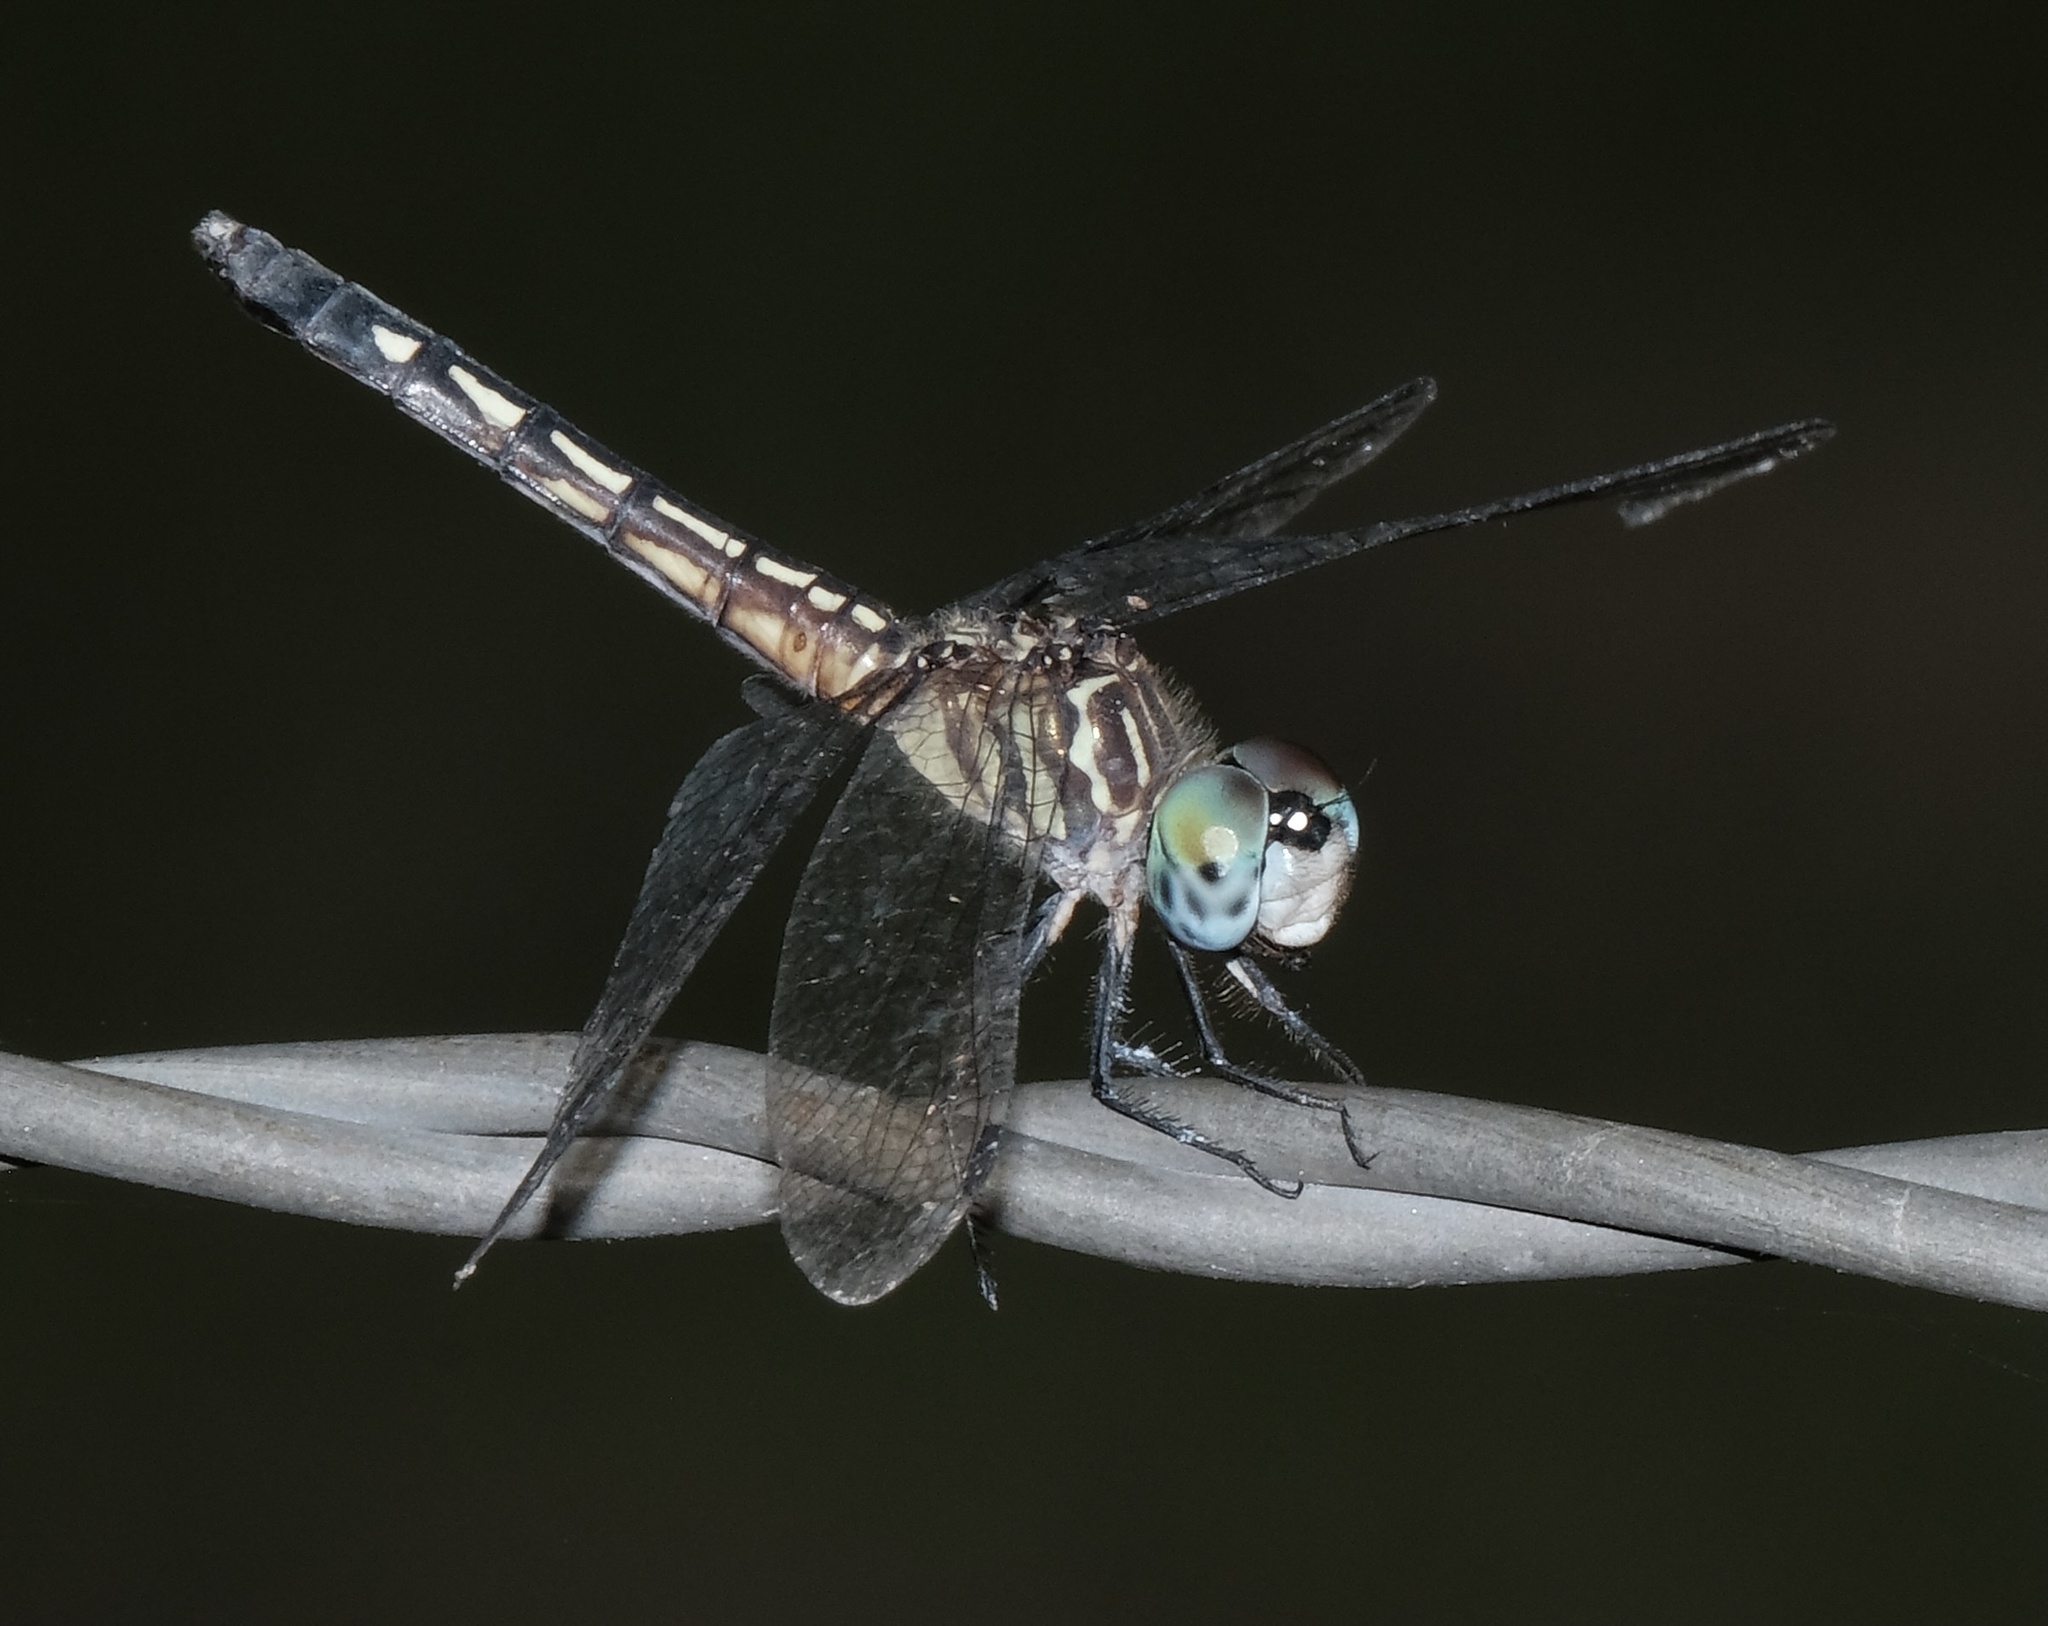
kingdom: Animalia
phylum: Arthropoda
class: Insecta
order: Odonata
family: Libellulidae
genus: Pachydiplax
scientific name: Pachydiplax longipennis
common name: Blue dasher
